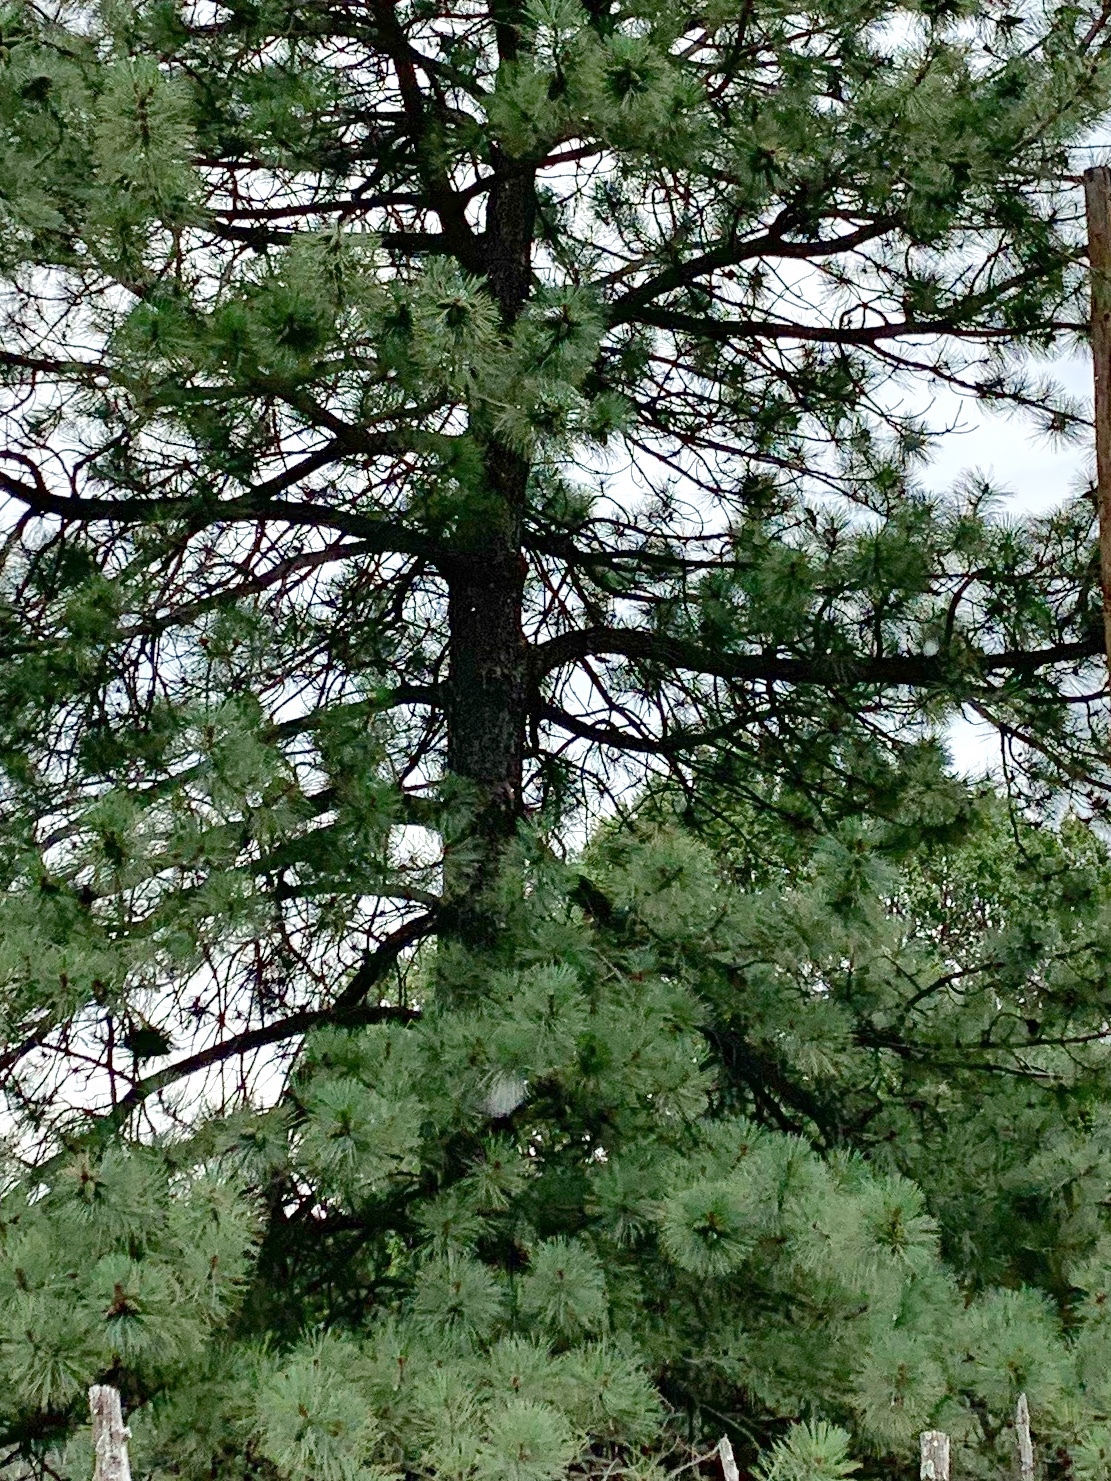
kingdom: Plantae
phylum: Tracheophyta
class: Pinopsida
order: Pinales
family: Pinaceae
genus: Pinus
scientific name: Pinus ponderosa
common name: Western yellow-pine
